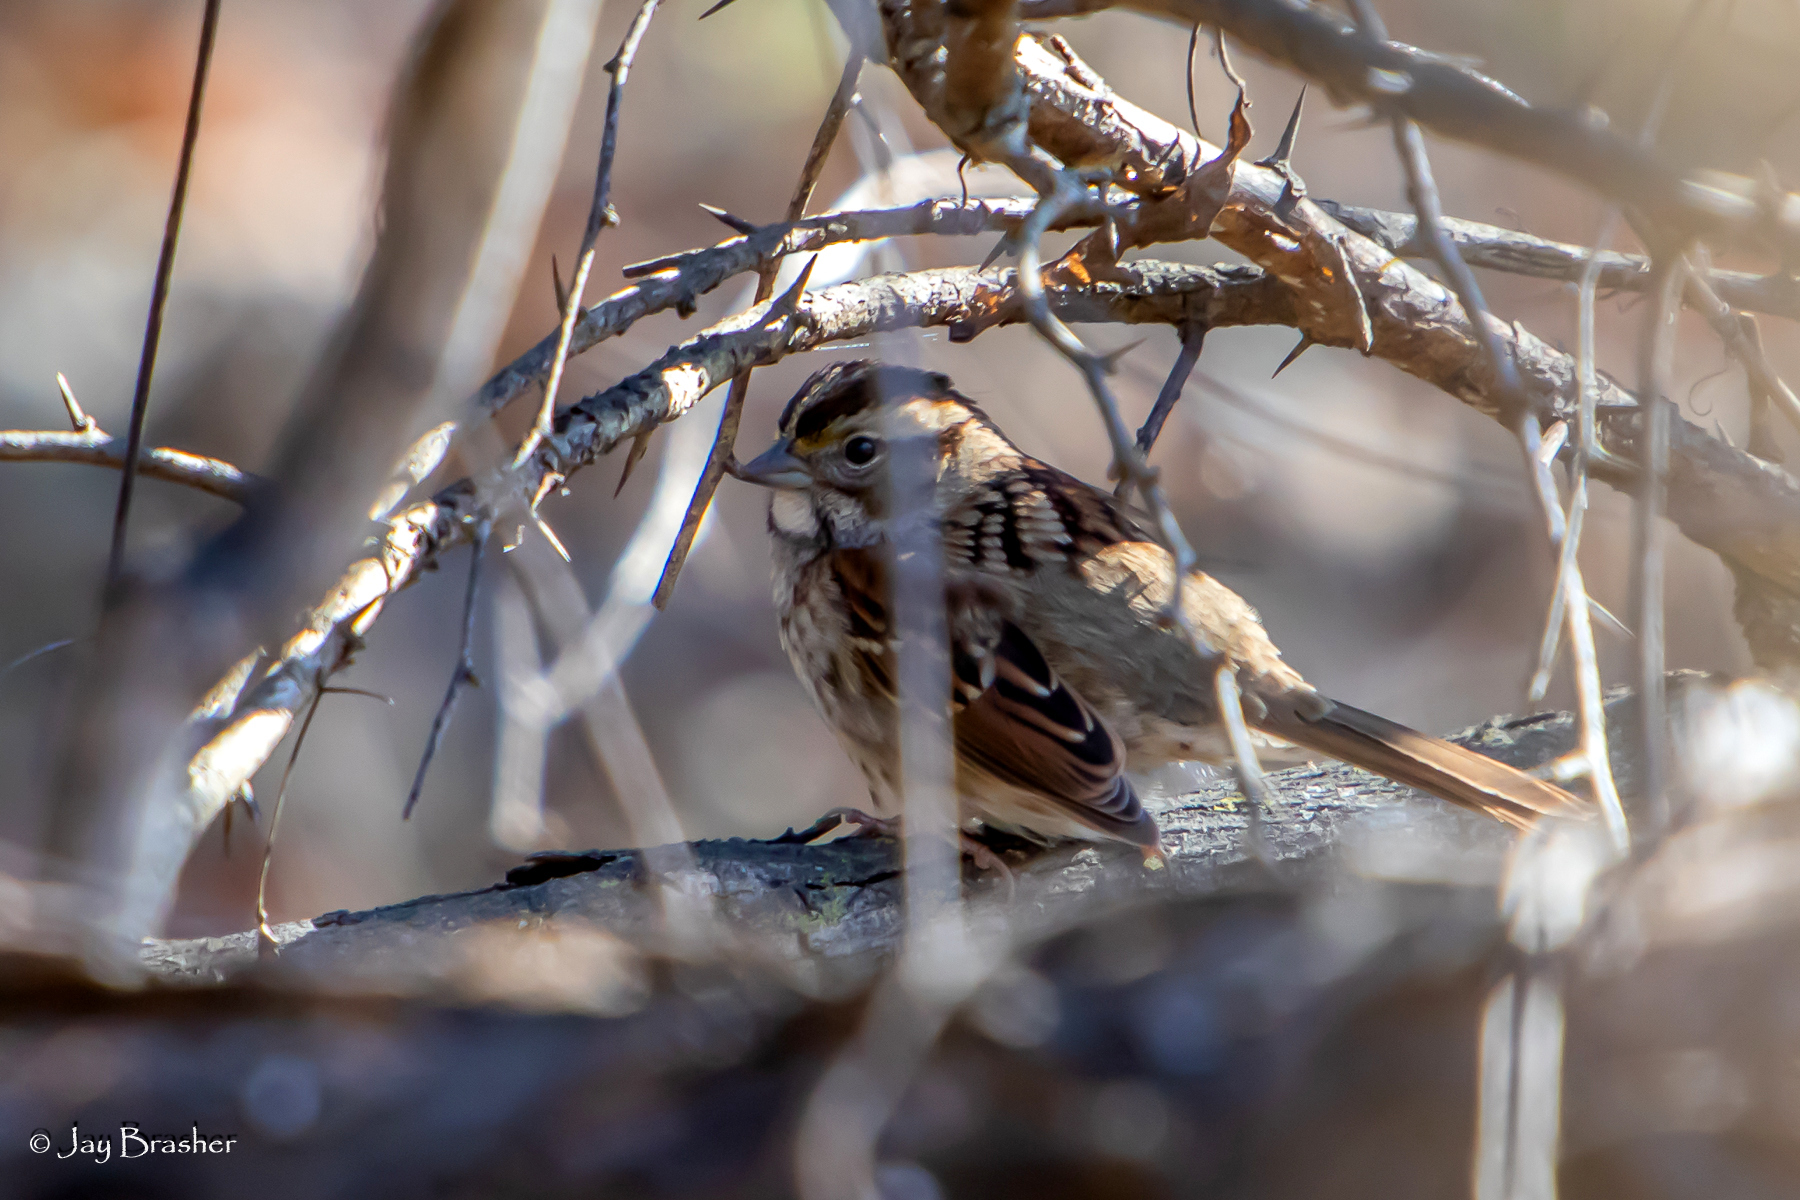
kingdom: Animalia
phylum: Chordata
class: Aves
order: Passeriformes
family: Passerellidae
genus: Zonotrichia
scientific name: Zonotrichia albicollis
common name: White-throated sparrow
